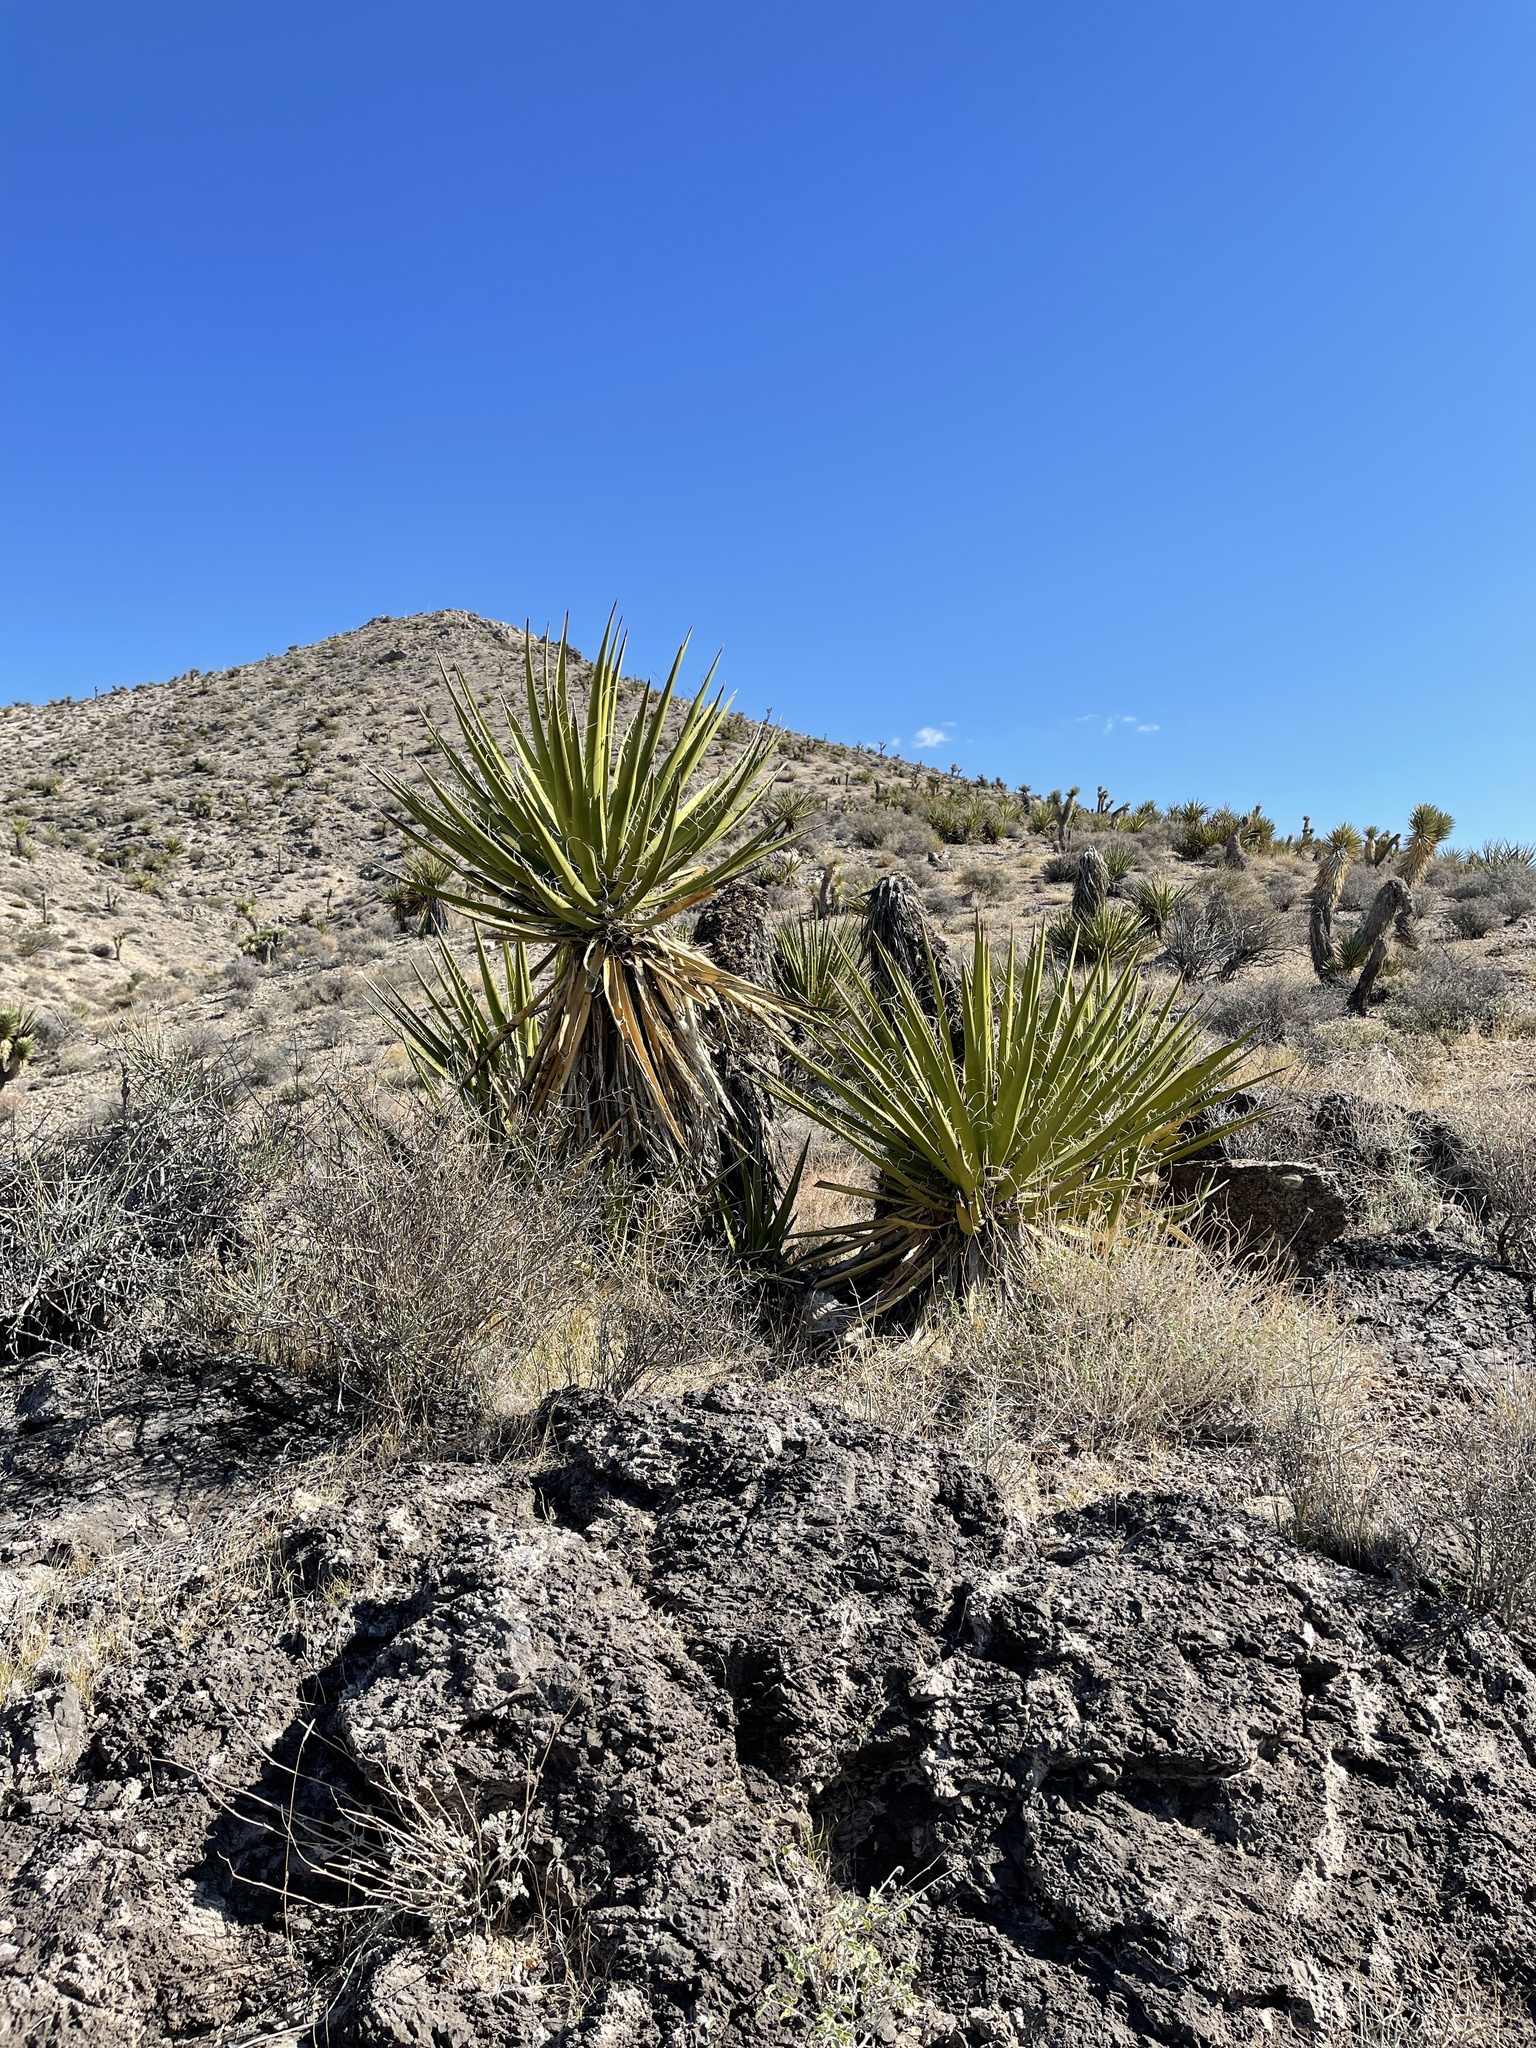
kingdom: Plantae
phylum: Tracheophyta
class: Liliopsida
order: Asparagales
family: Asparagaceae
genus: Yucca
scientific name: Yucca schidigera
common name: Mojave yucca
